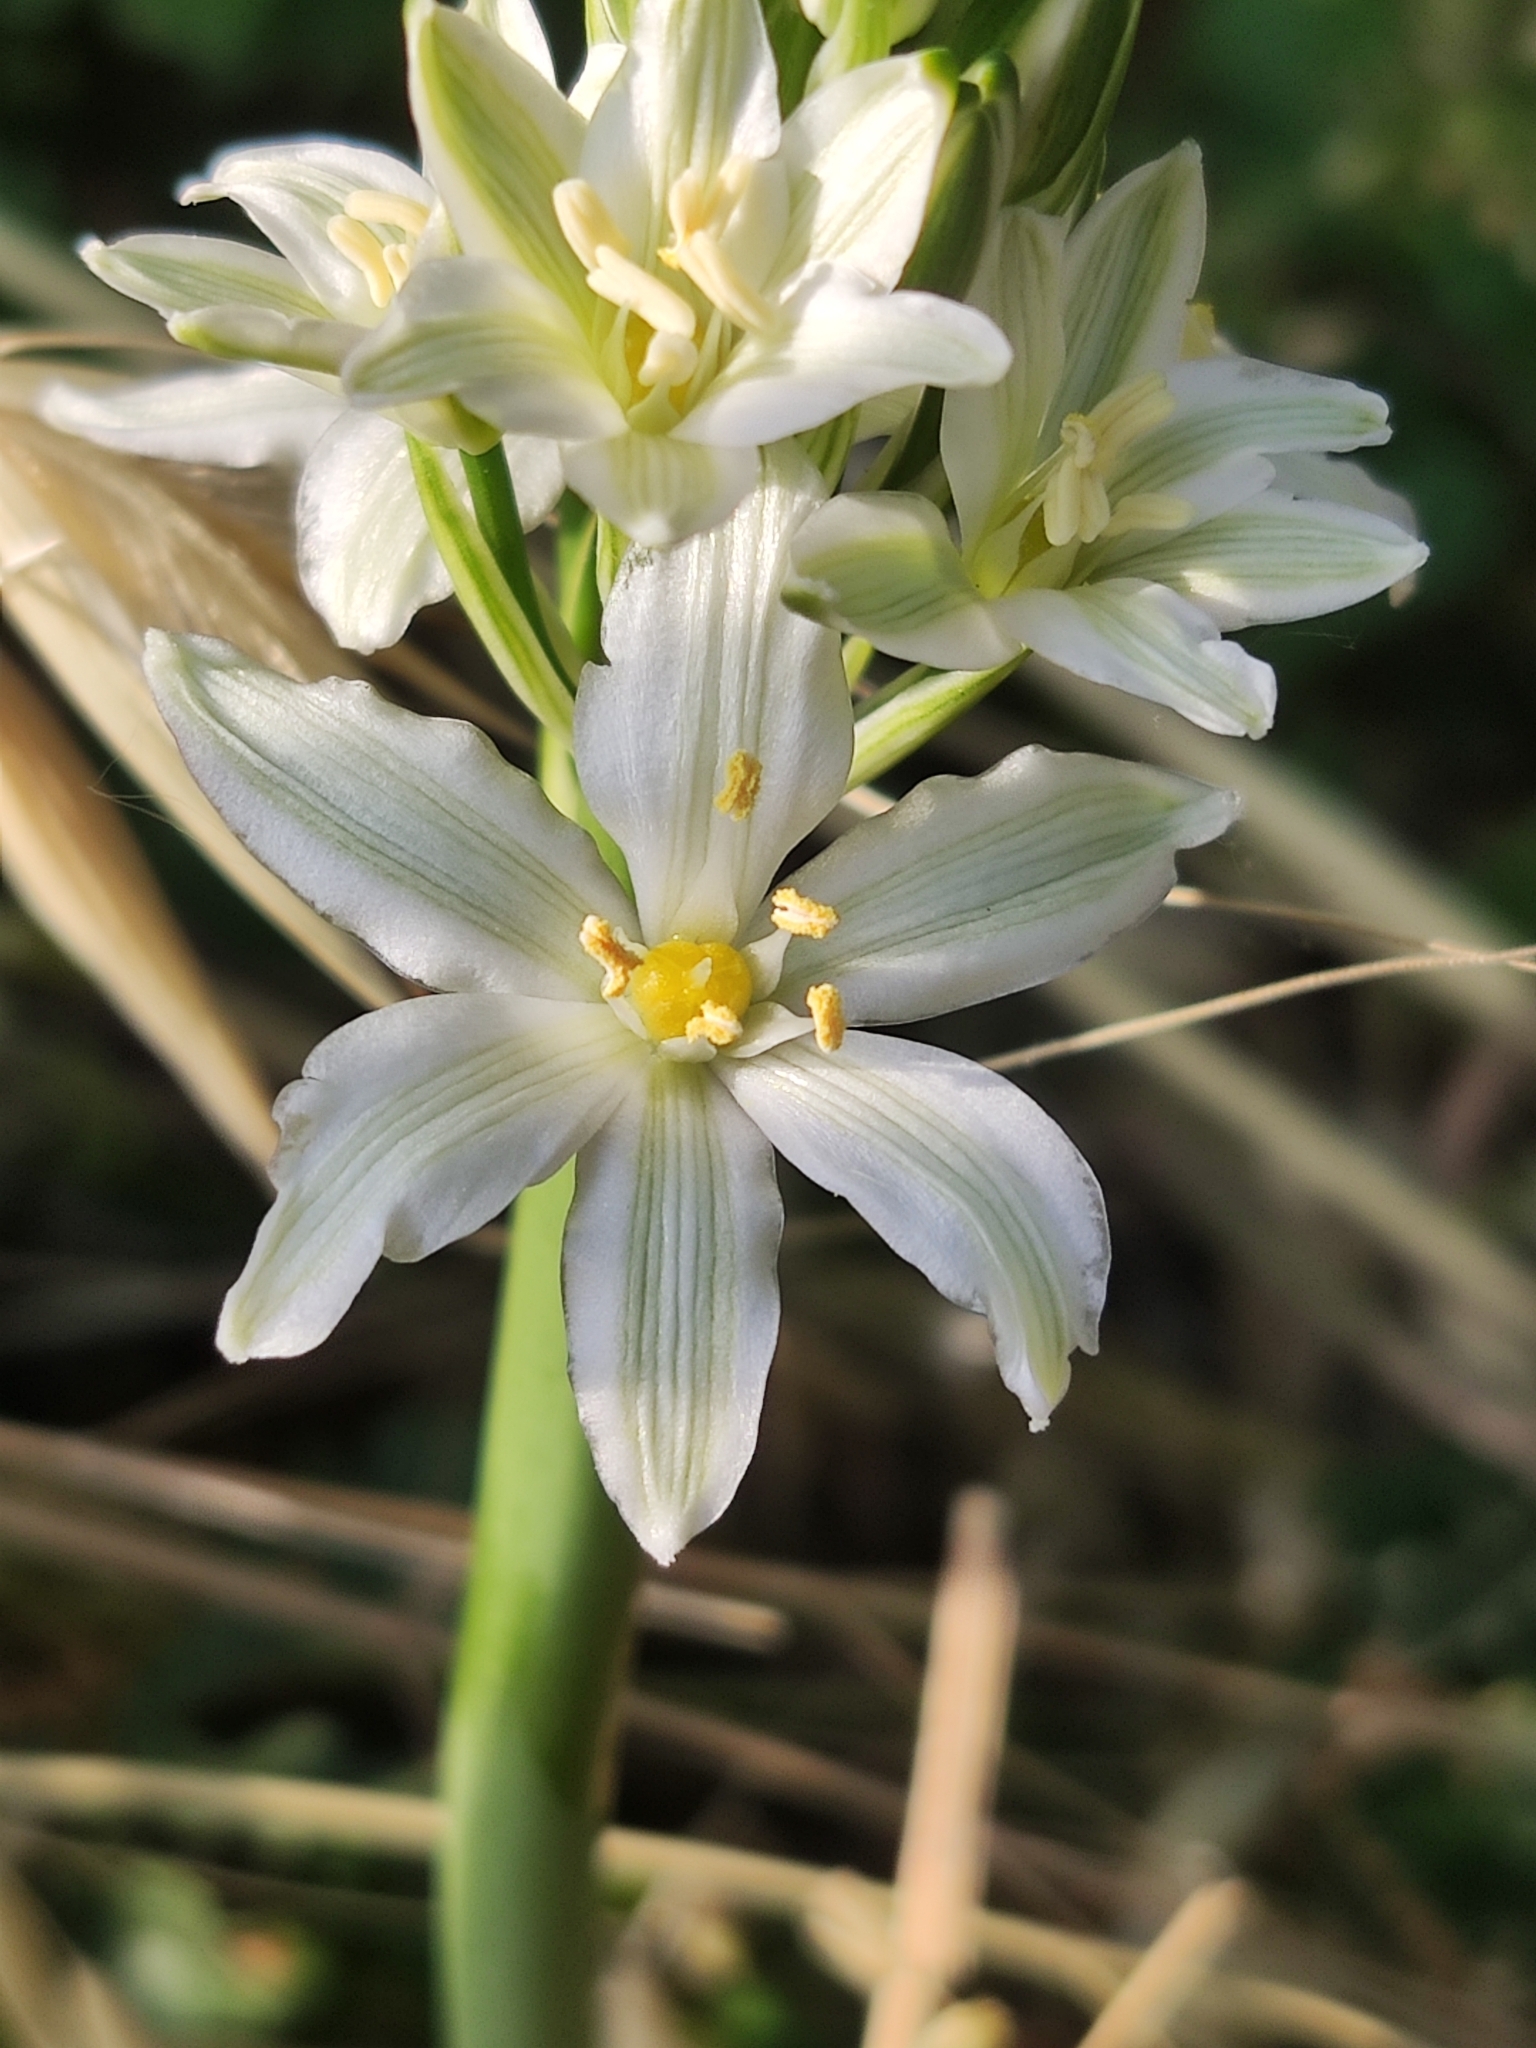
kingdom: Plantae
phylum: Tracheophyta
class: Liliopsida
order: Asparagales
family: Asparagaceae
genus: Ornithogalum
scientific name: Ornithogalum pyramidale
